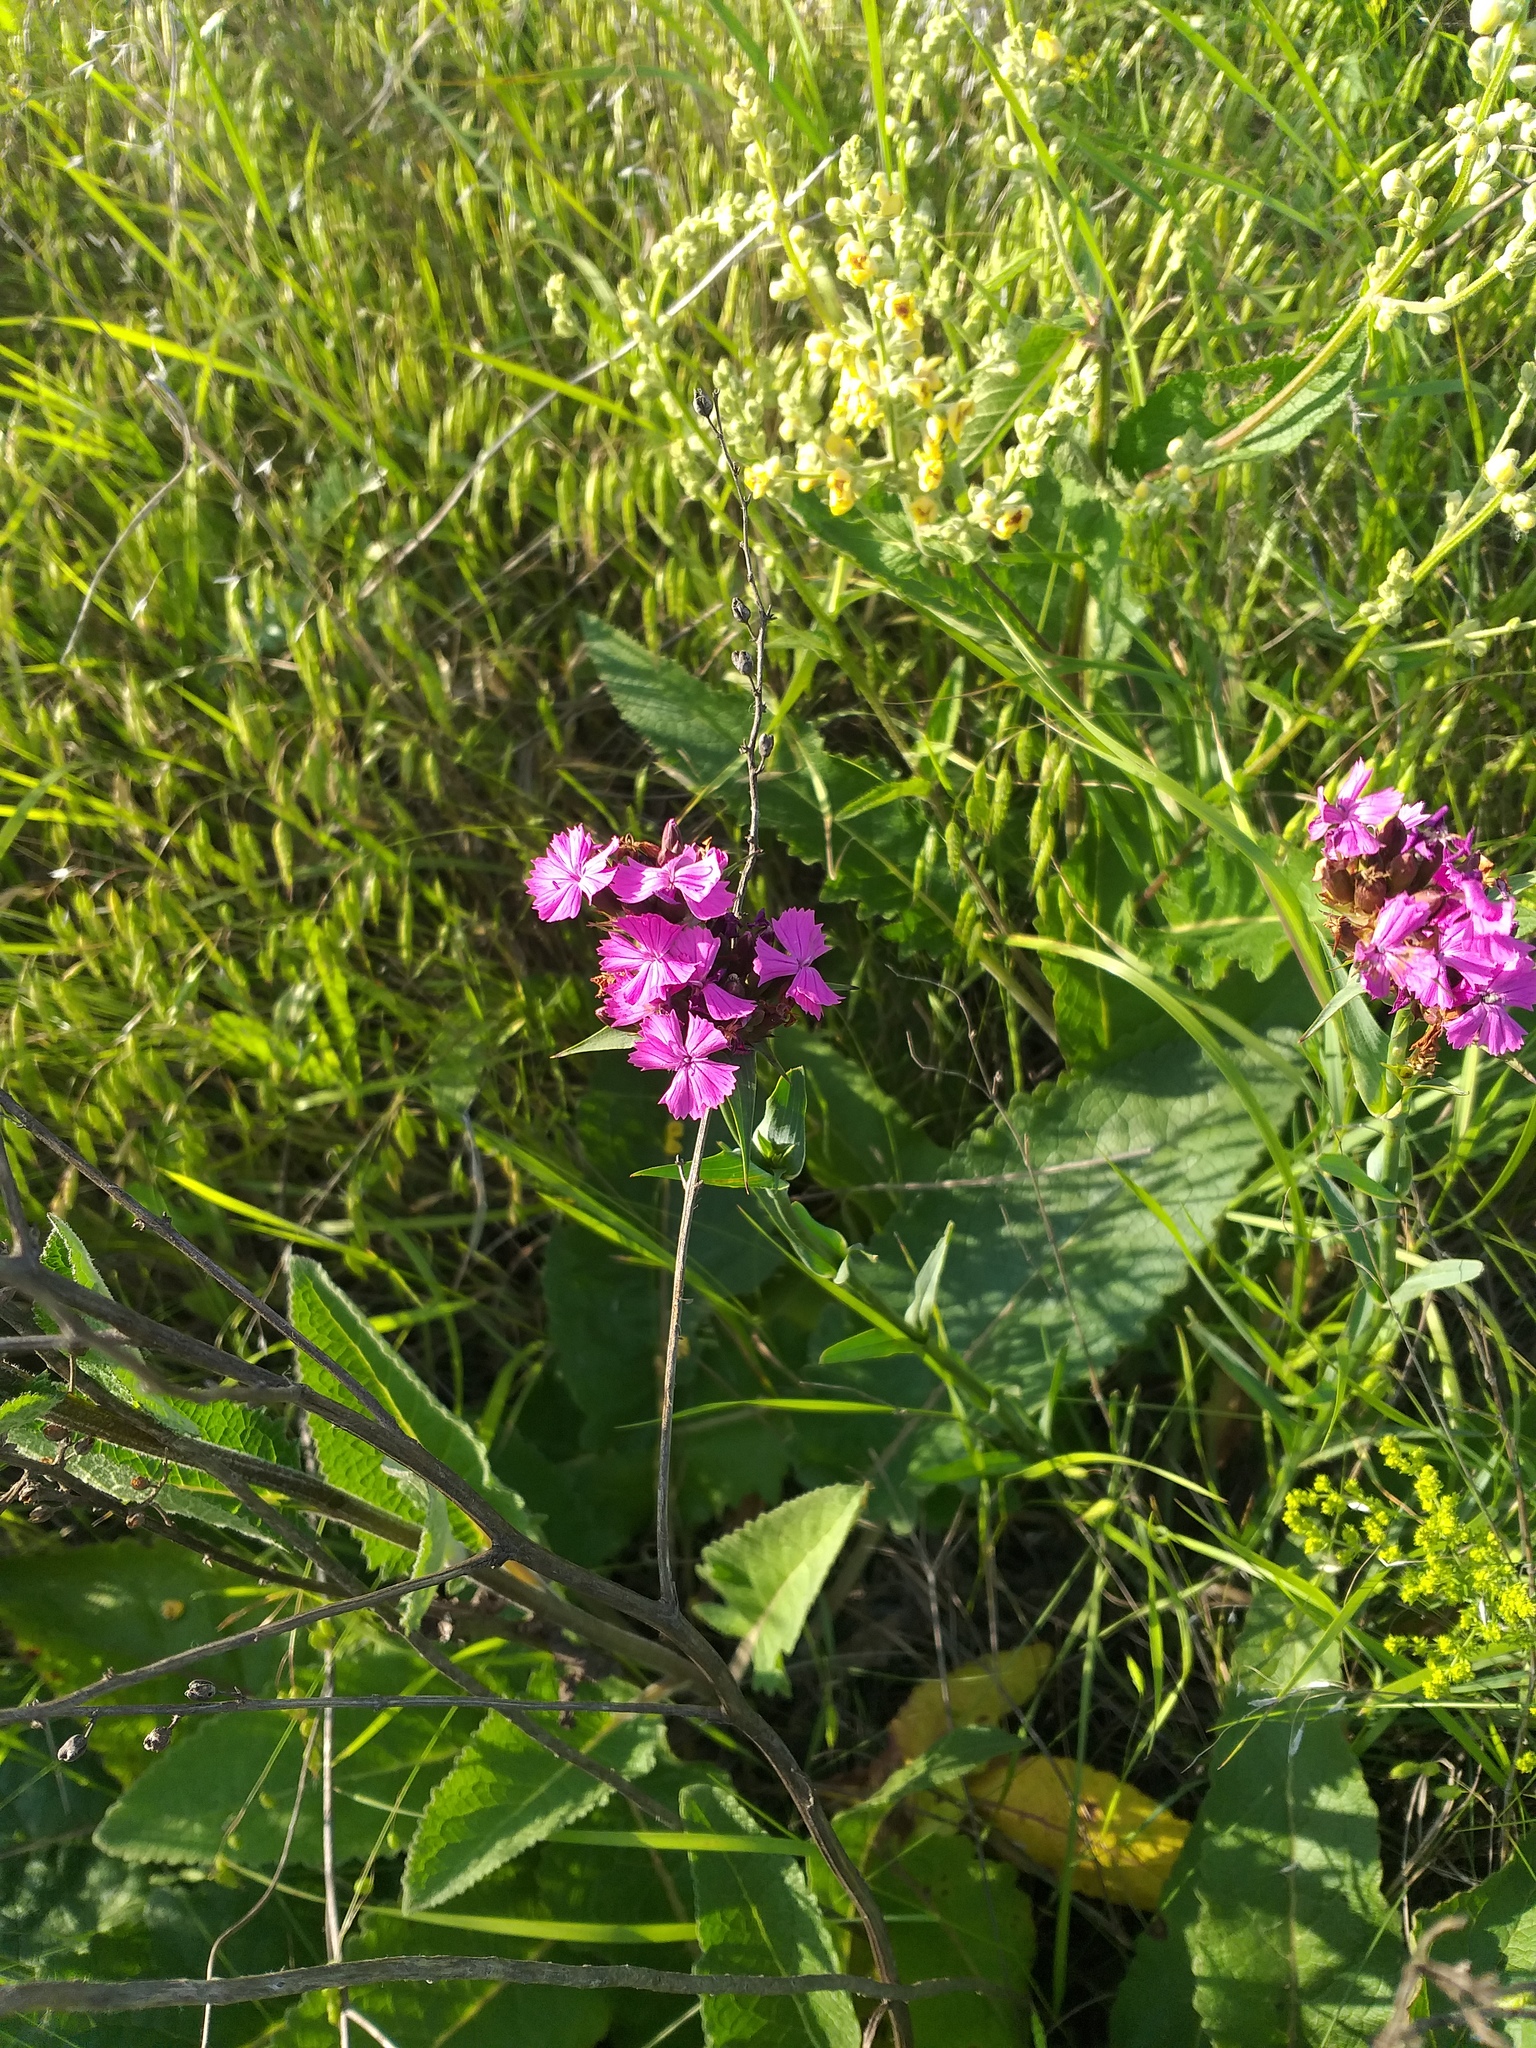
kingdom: Plantae
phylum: Tracheophyta
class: Magnoliopsida
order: Caryophyllales
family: Caryophyllaceae
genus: Dianthus
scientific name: Dianthus capitatus
